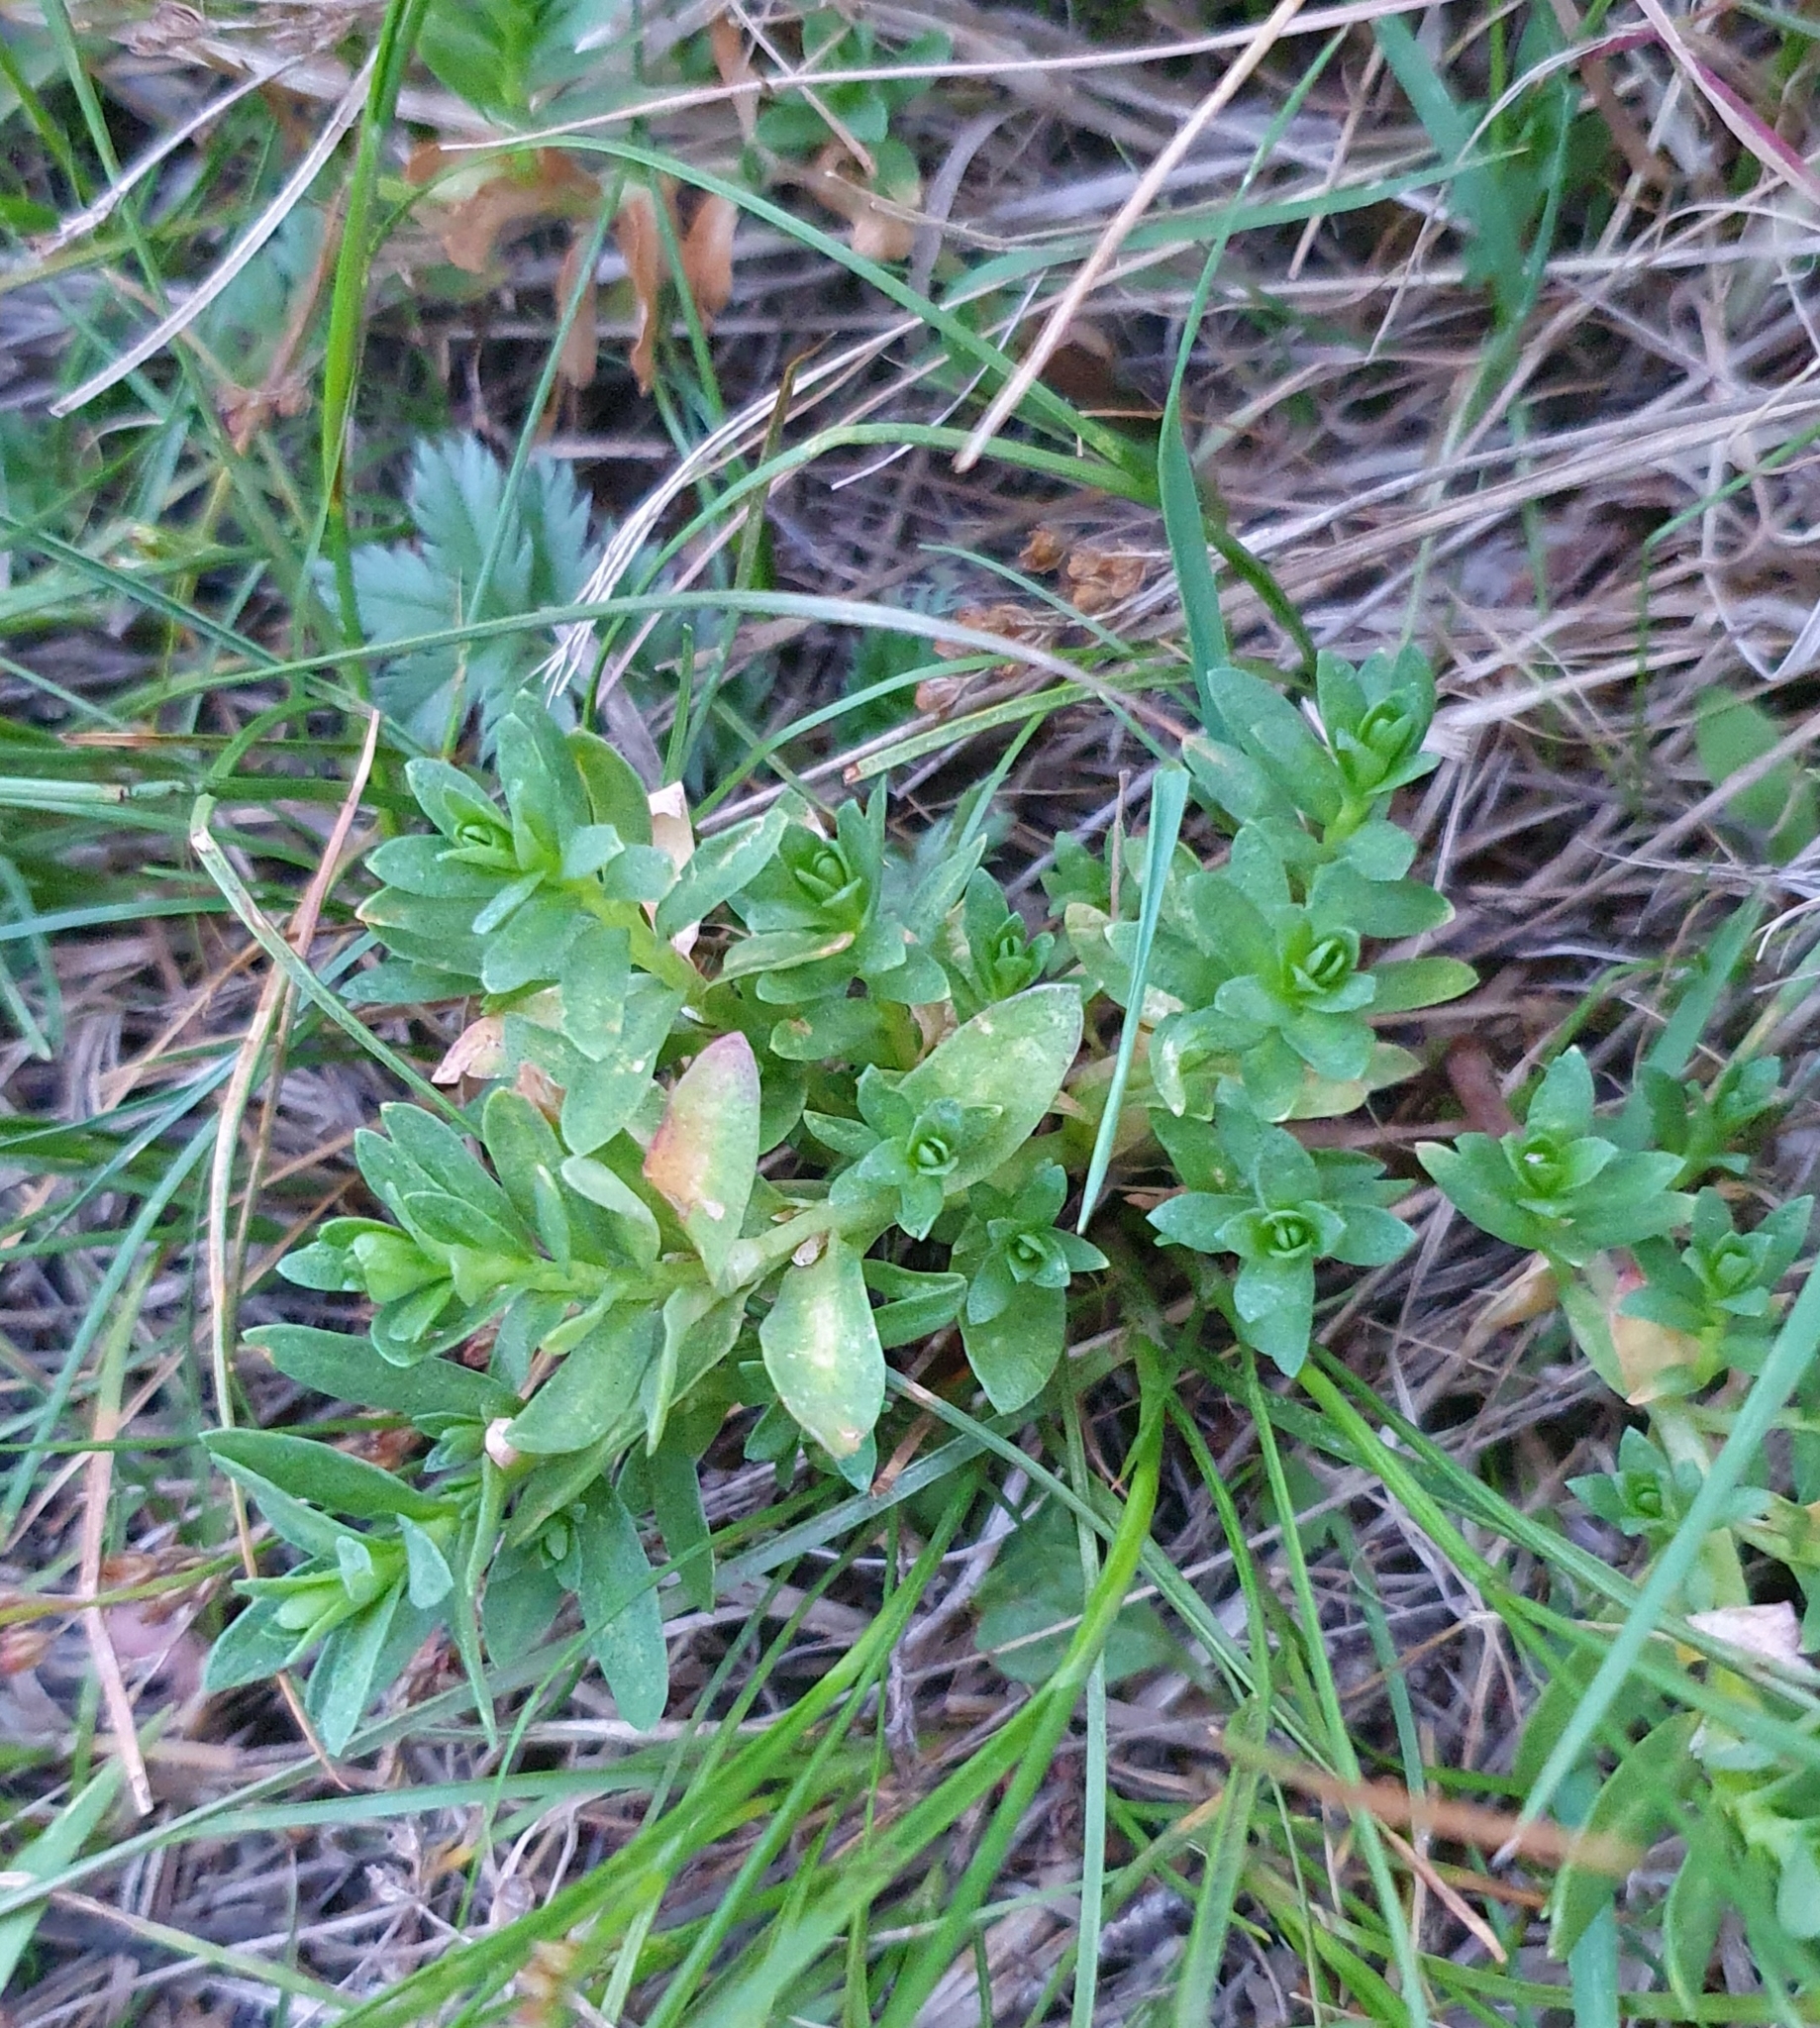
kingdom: Plantae
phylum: Tracheophyta
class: Magnoliopsida
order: Ericales
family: Primulaceae
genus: Lysimachia
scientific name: Lysimachia maritima
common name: Sea milkwort
